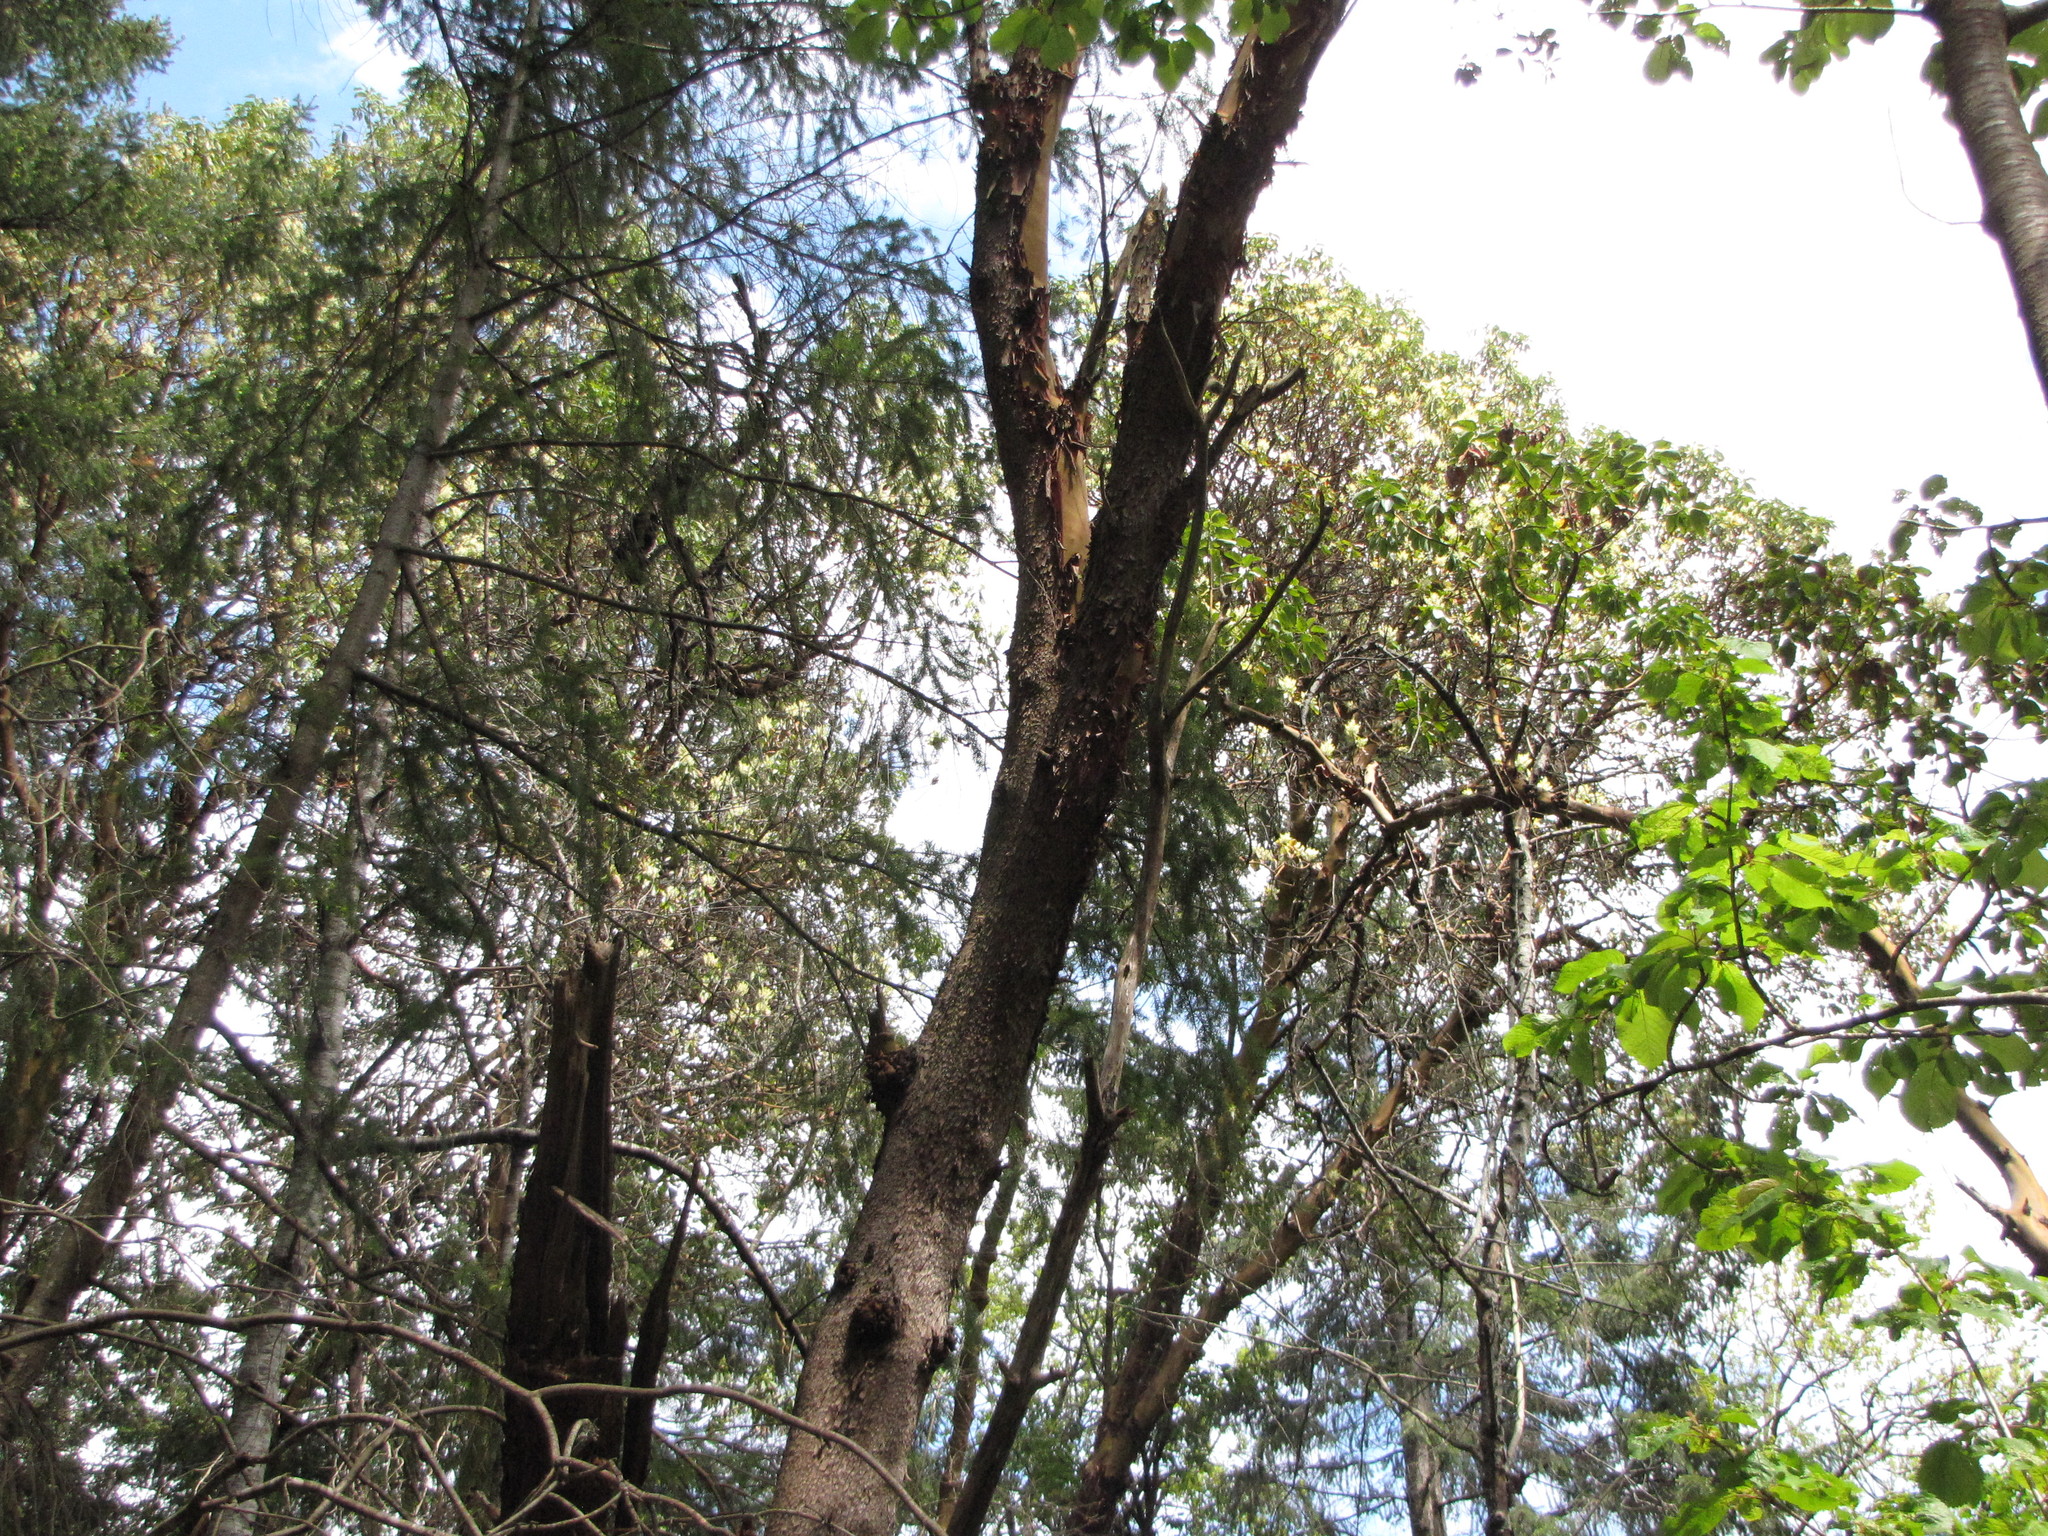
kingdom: Plantae
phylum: Tracheophyta
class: Magnoliopsida
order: Ericales
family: Ericaceae
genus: Arbutus
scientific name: Arbutus menziesii
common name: Pacific madrone
